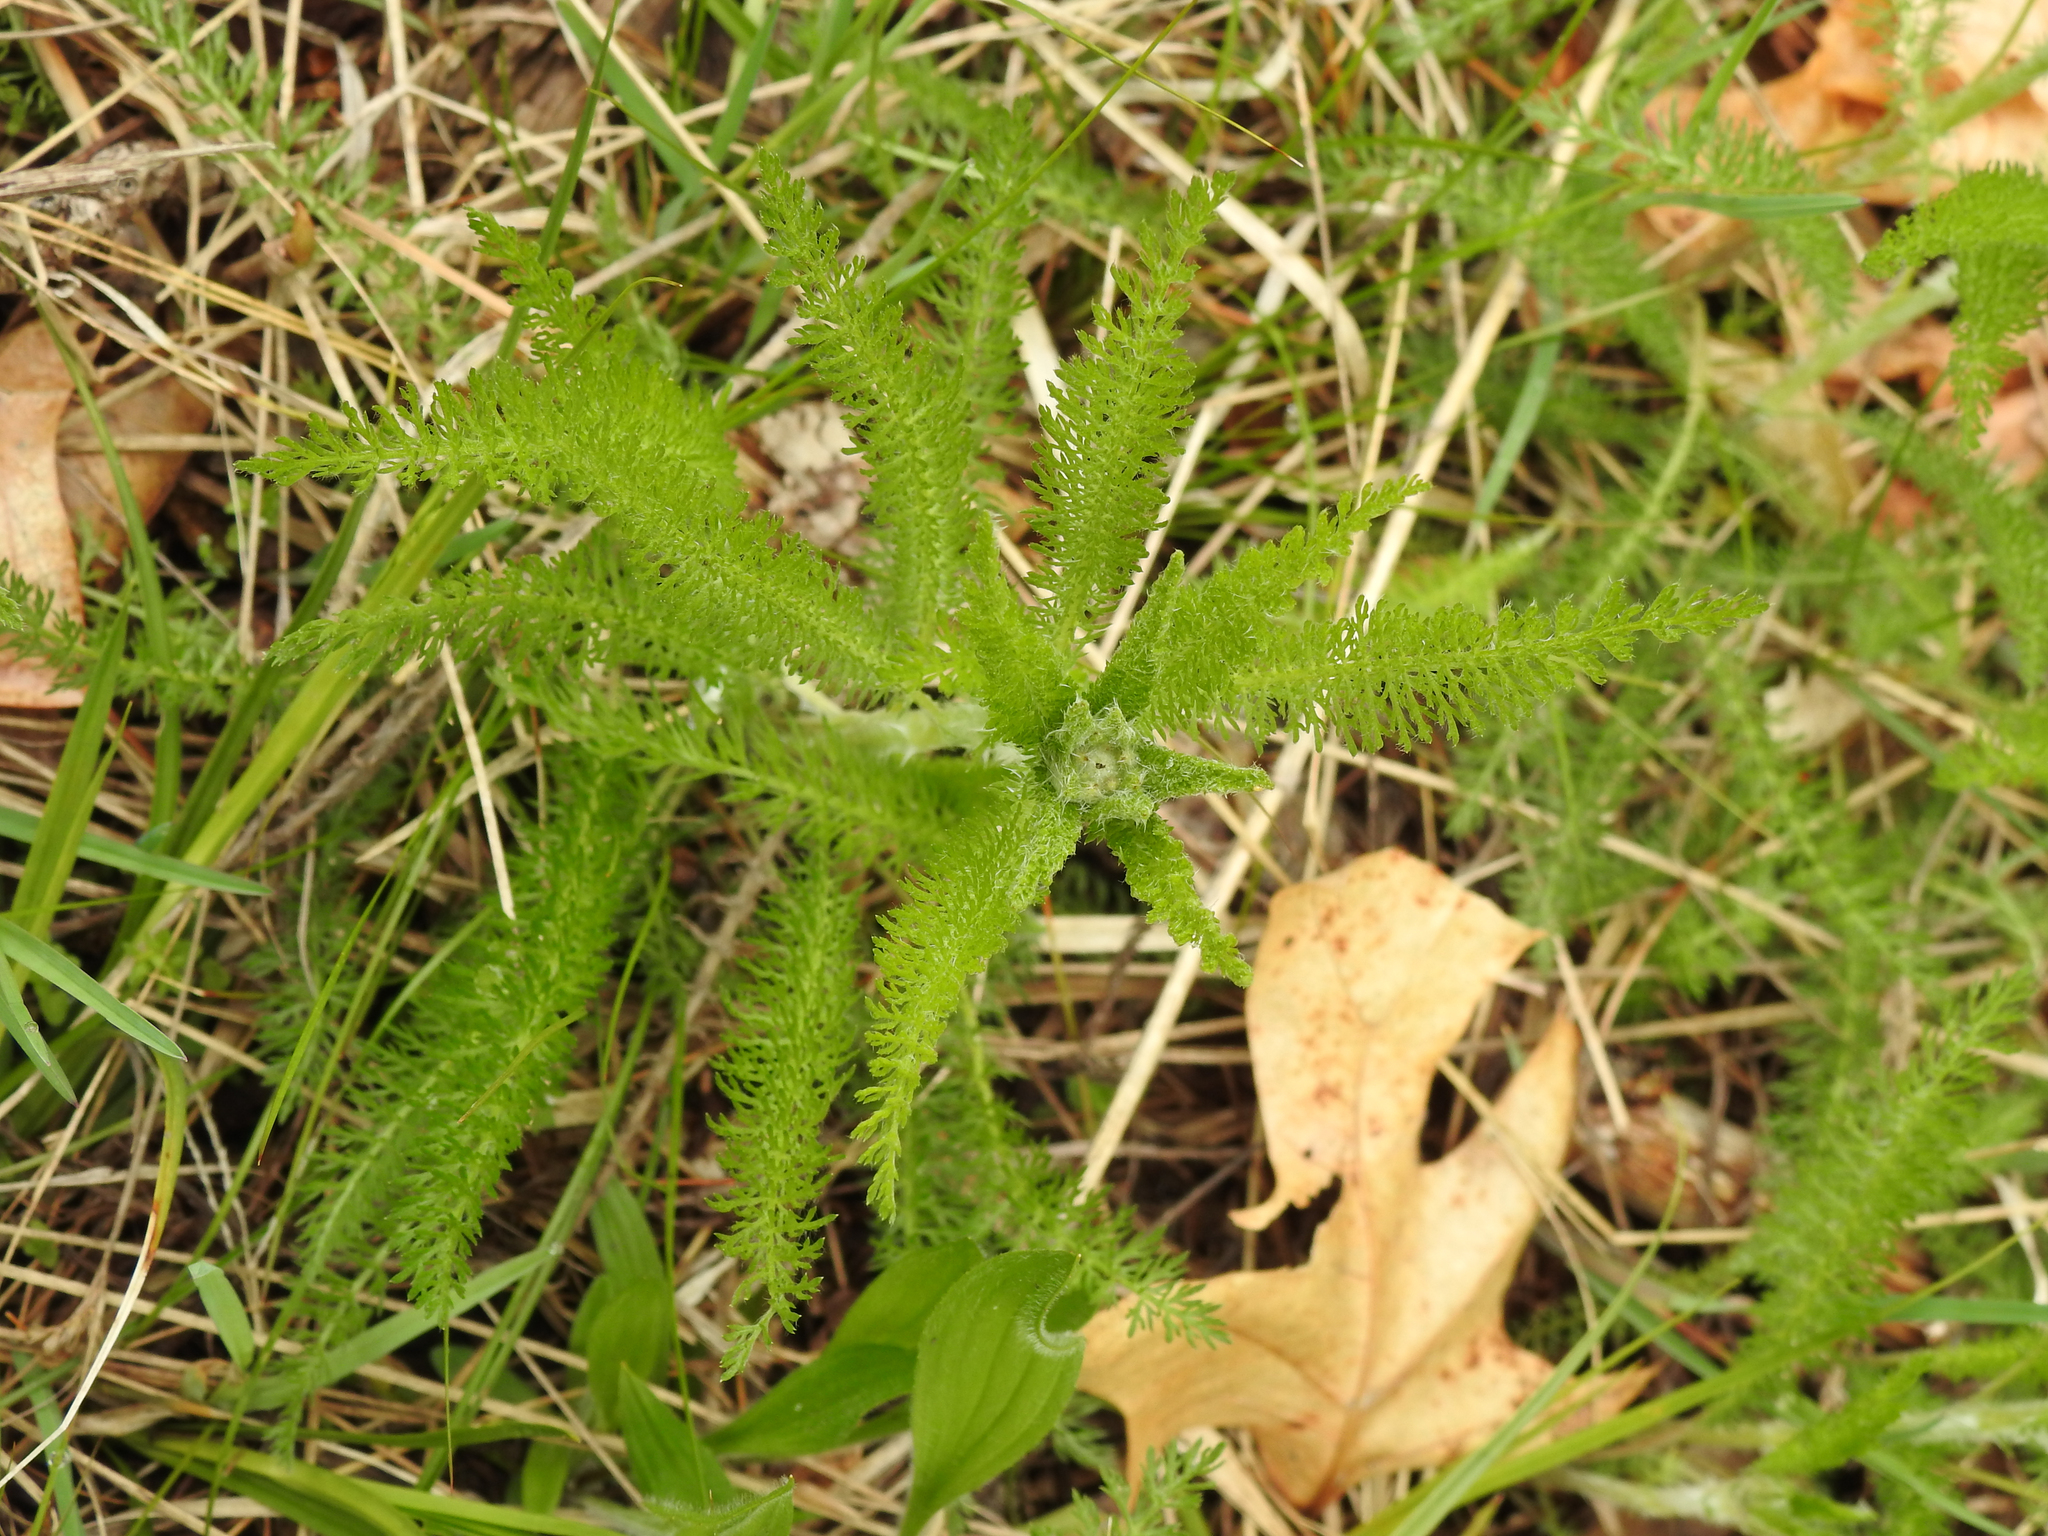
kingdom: Plantae
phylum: Tracheophyta
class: Magnoliopsida
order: Asterales
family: Asteraceae
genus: Achillea
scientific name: Achillea millefolium
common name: Yarrow
